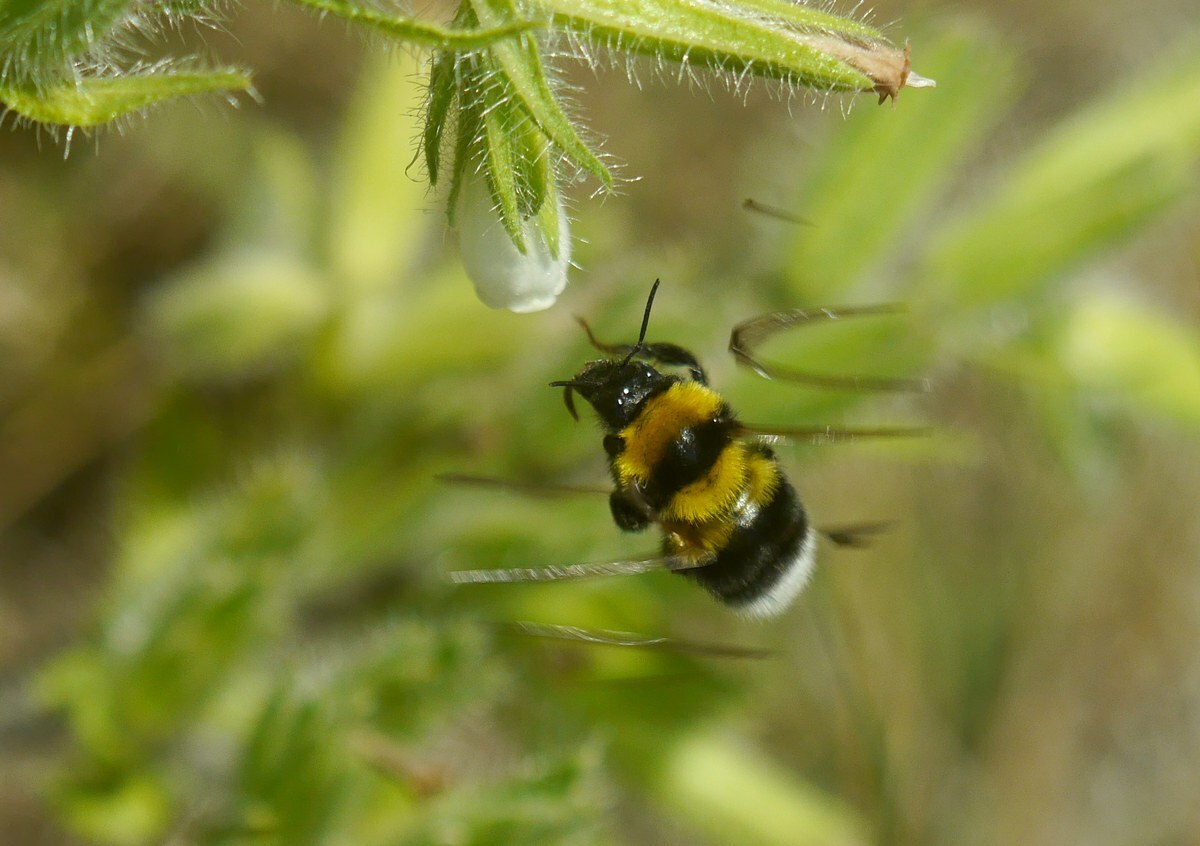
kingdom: Animalia
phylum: Arthropoda
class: Insecta
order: Hymenoptera
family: Apidae
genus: Bombus
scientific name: Bombus argillaceus
